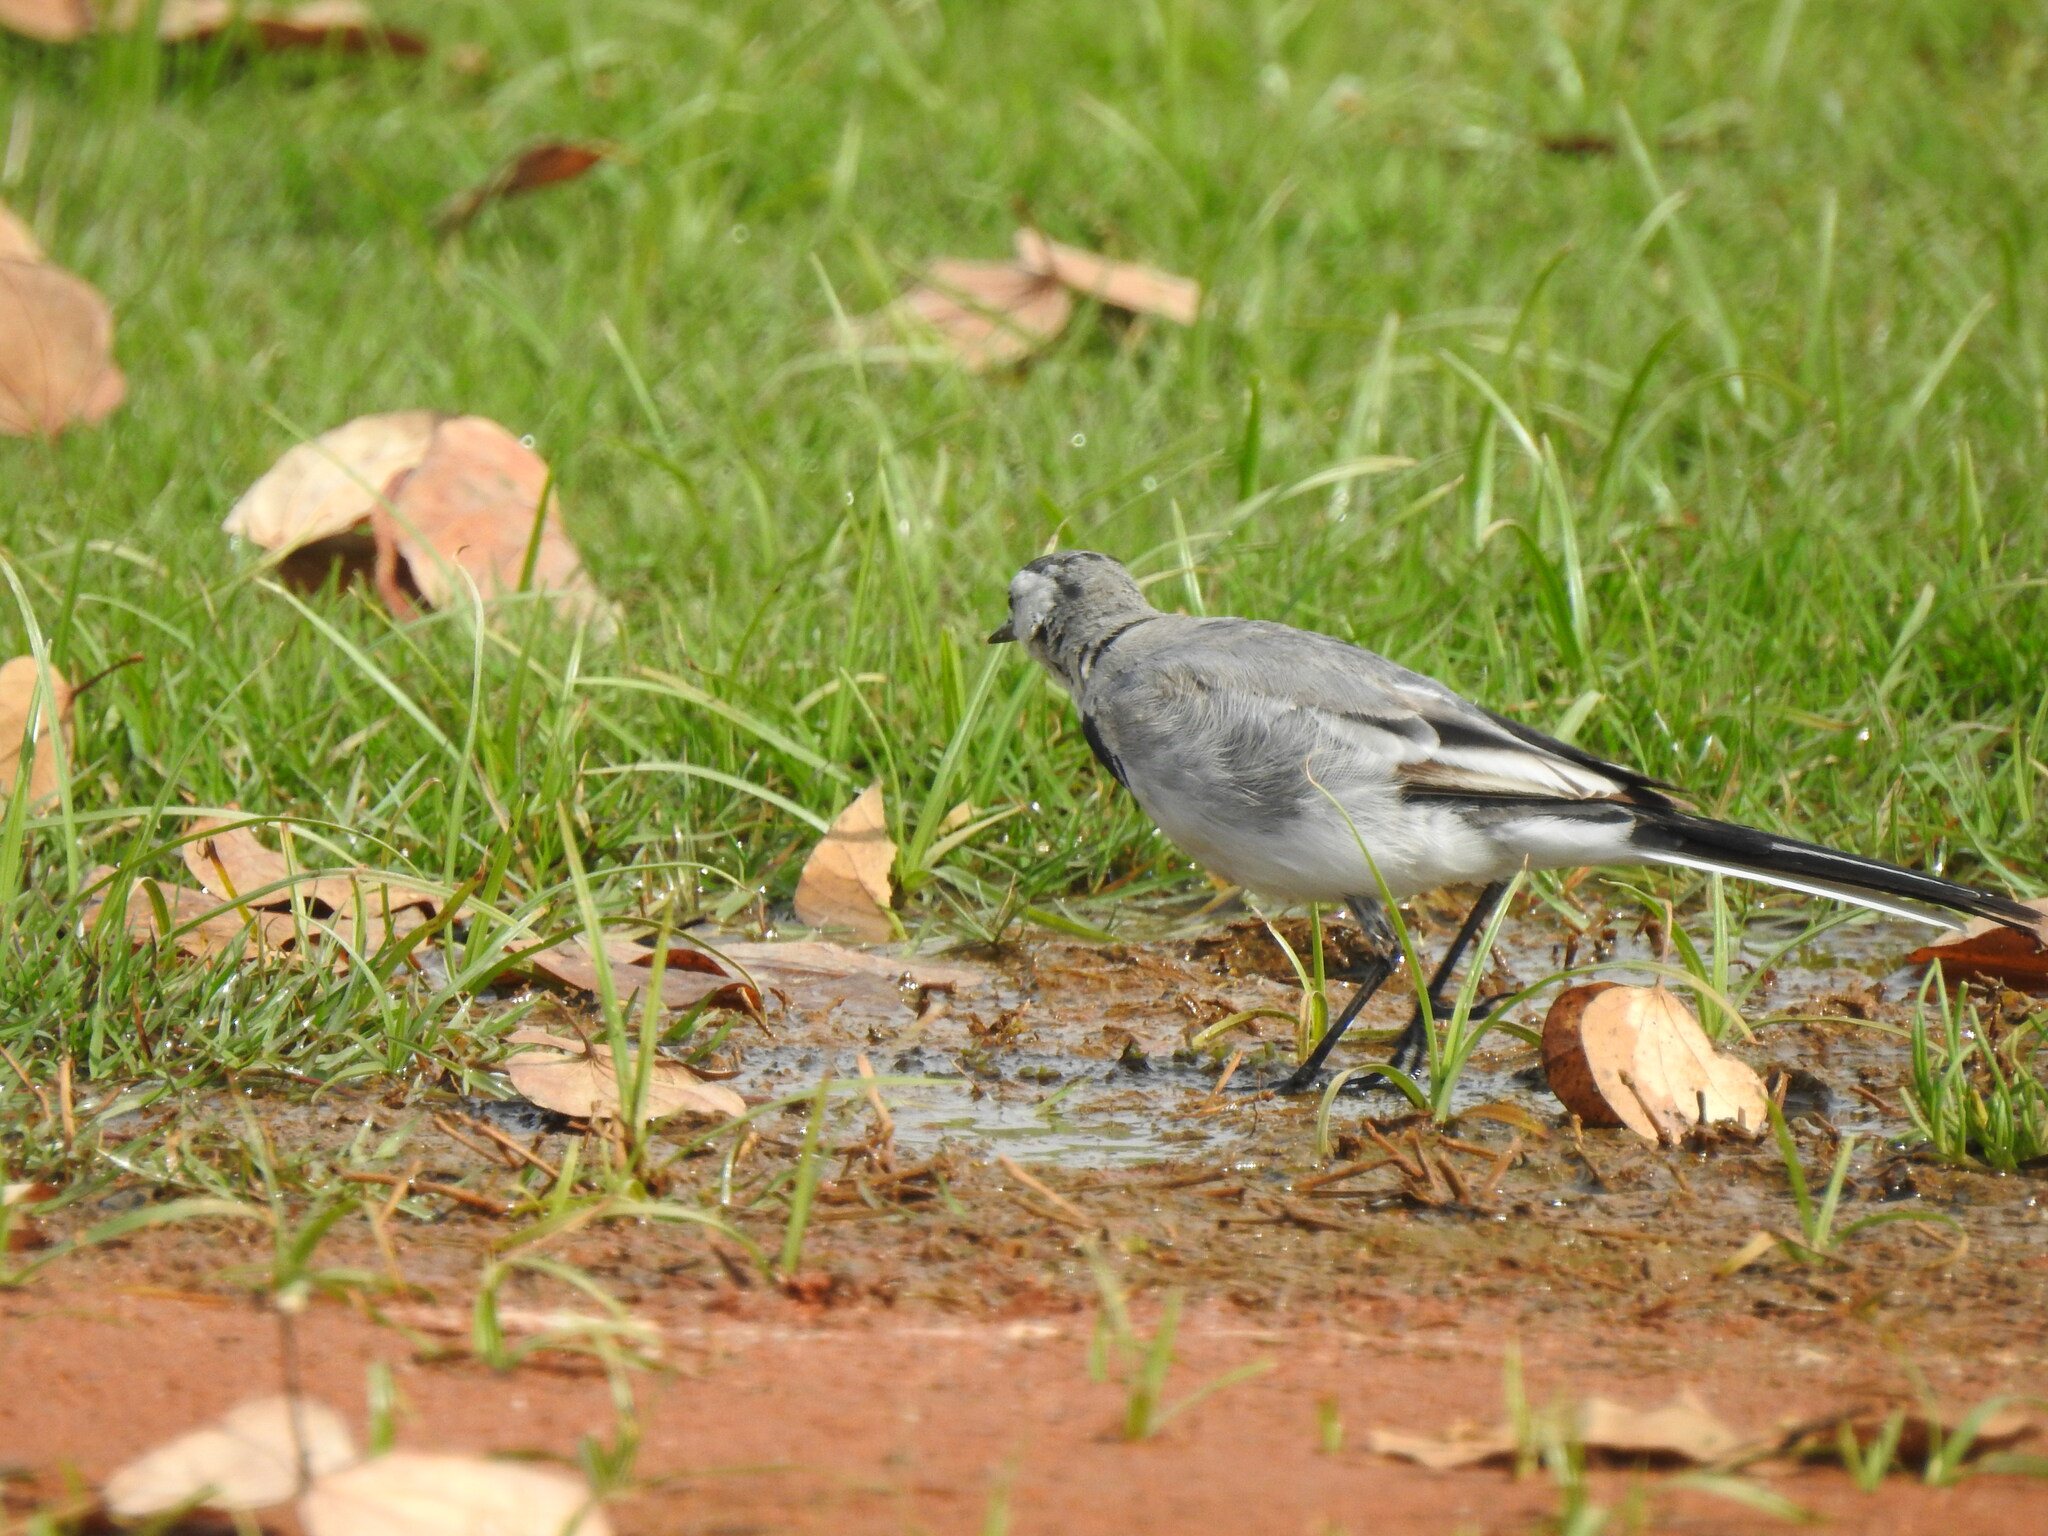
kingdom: Animalia
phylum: Chordata
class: Aves
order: Passeriformes
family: Motacillidae
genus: Motacilla
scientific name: Motacilla alba
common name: White wagtail
